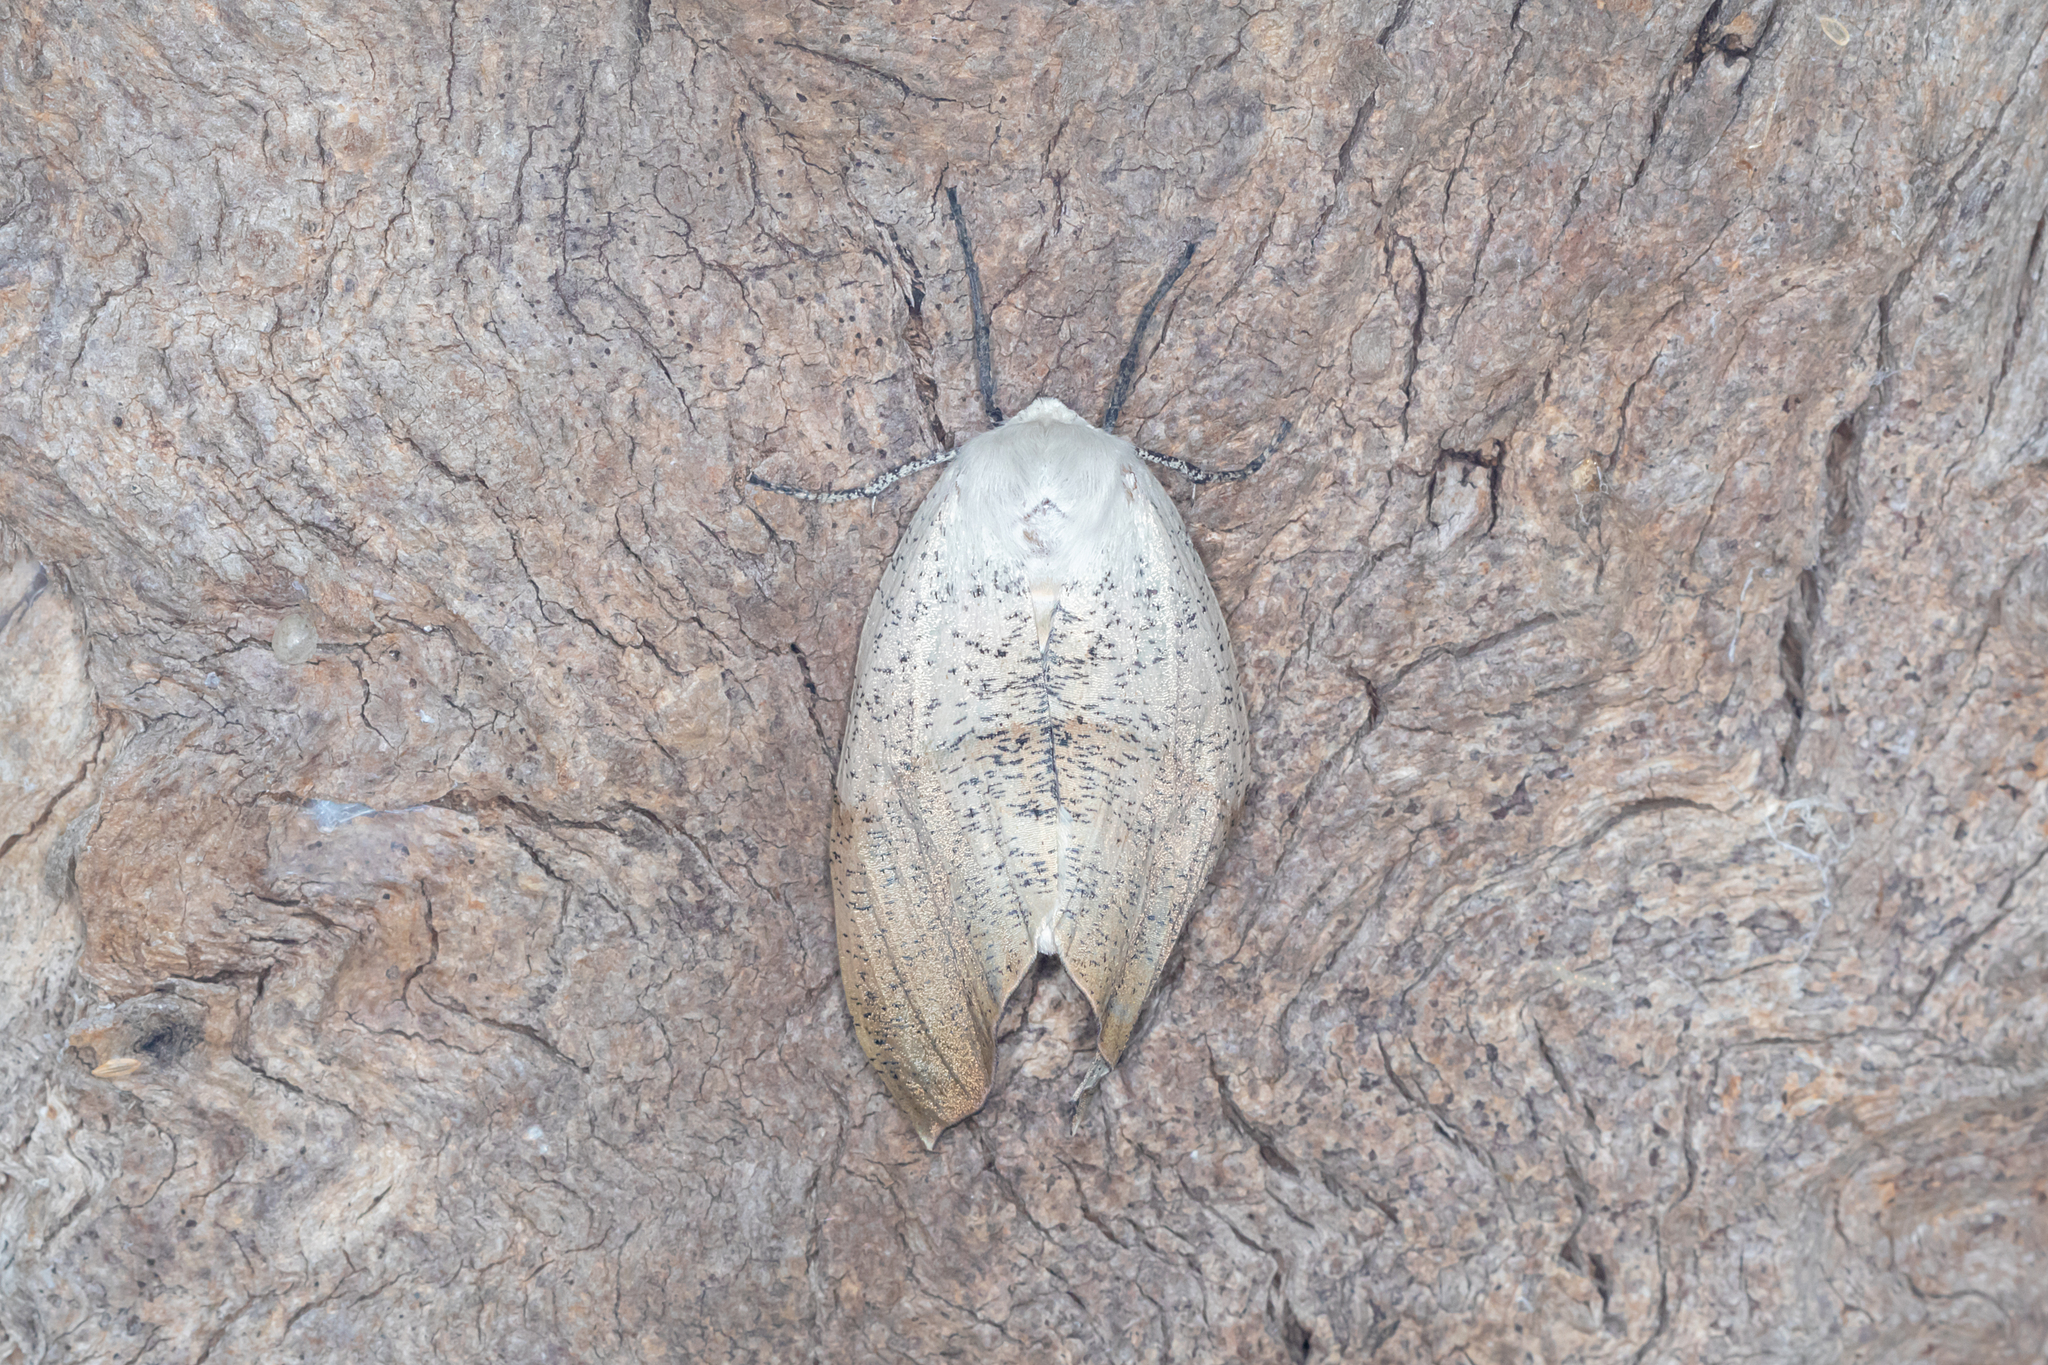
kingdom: Animalia
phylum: Arthropoda
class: Insecta
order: Lepidoptera
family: Geometridae
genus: Gastrophora
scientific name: Gastrophora henricaria
